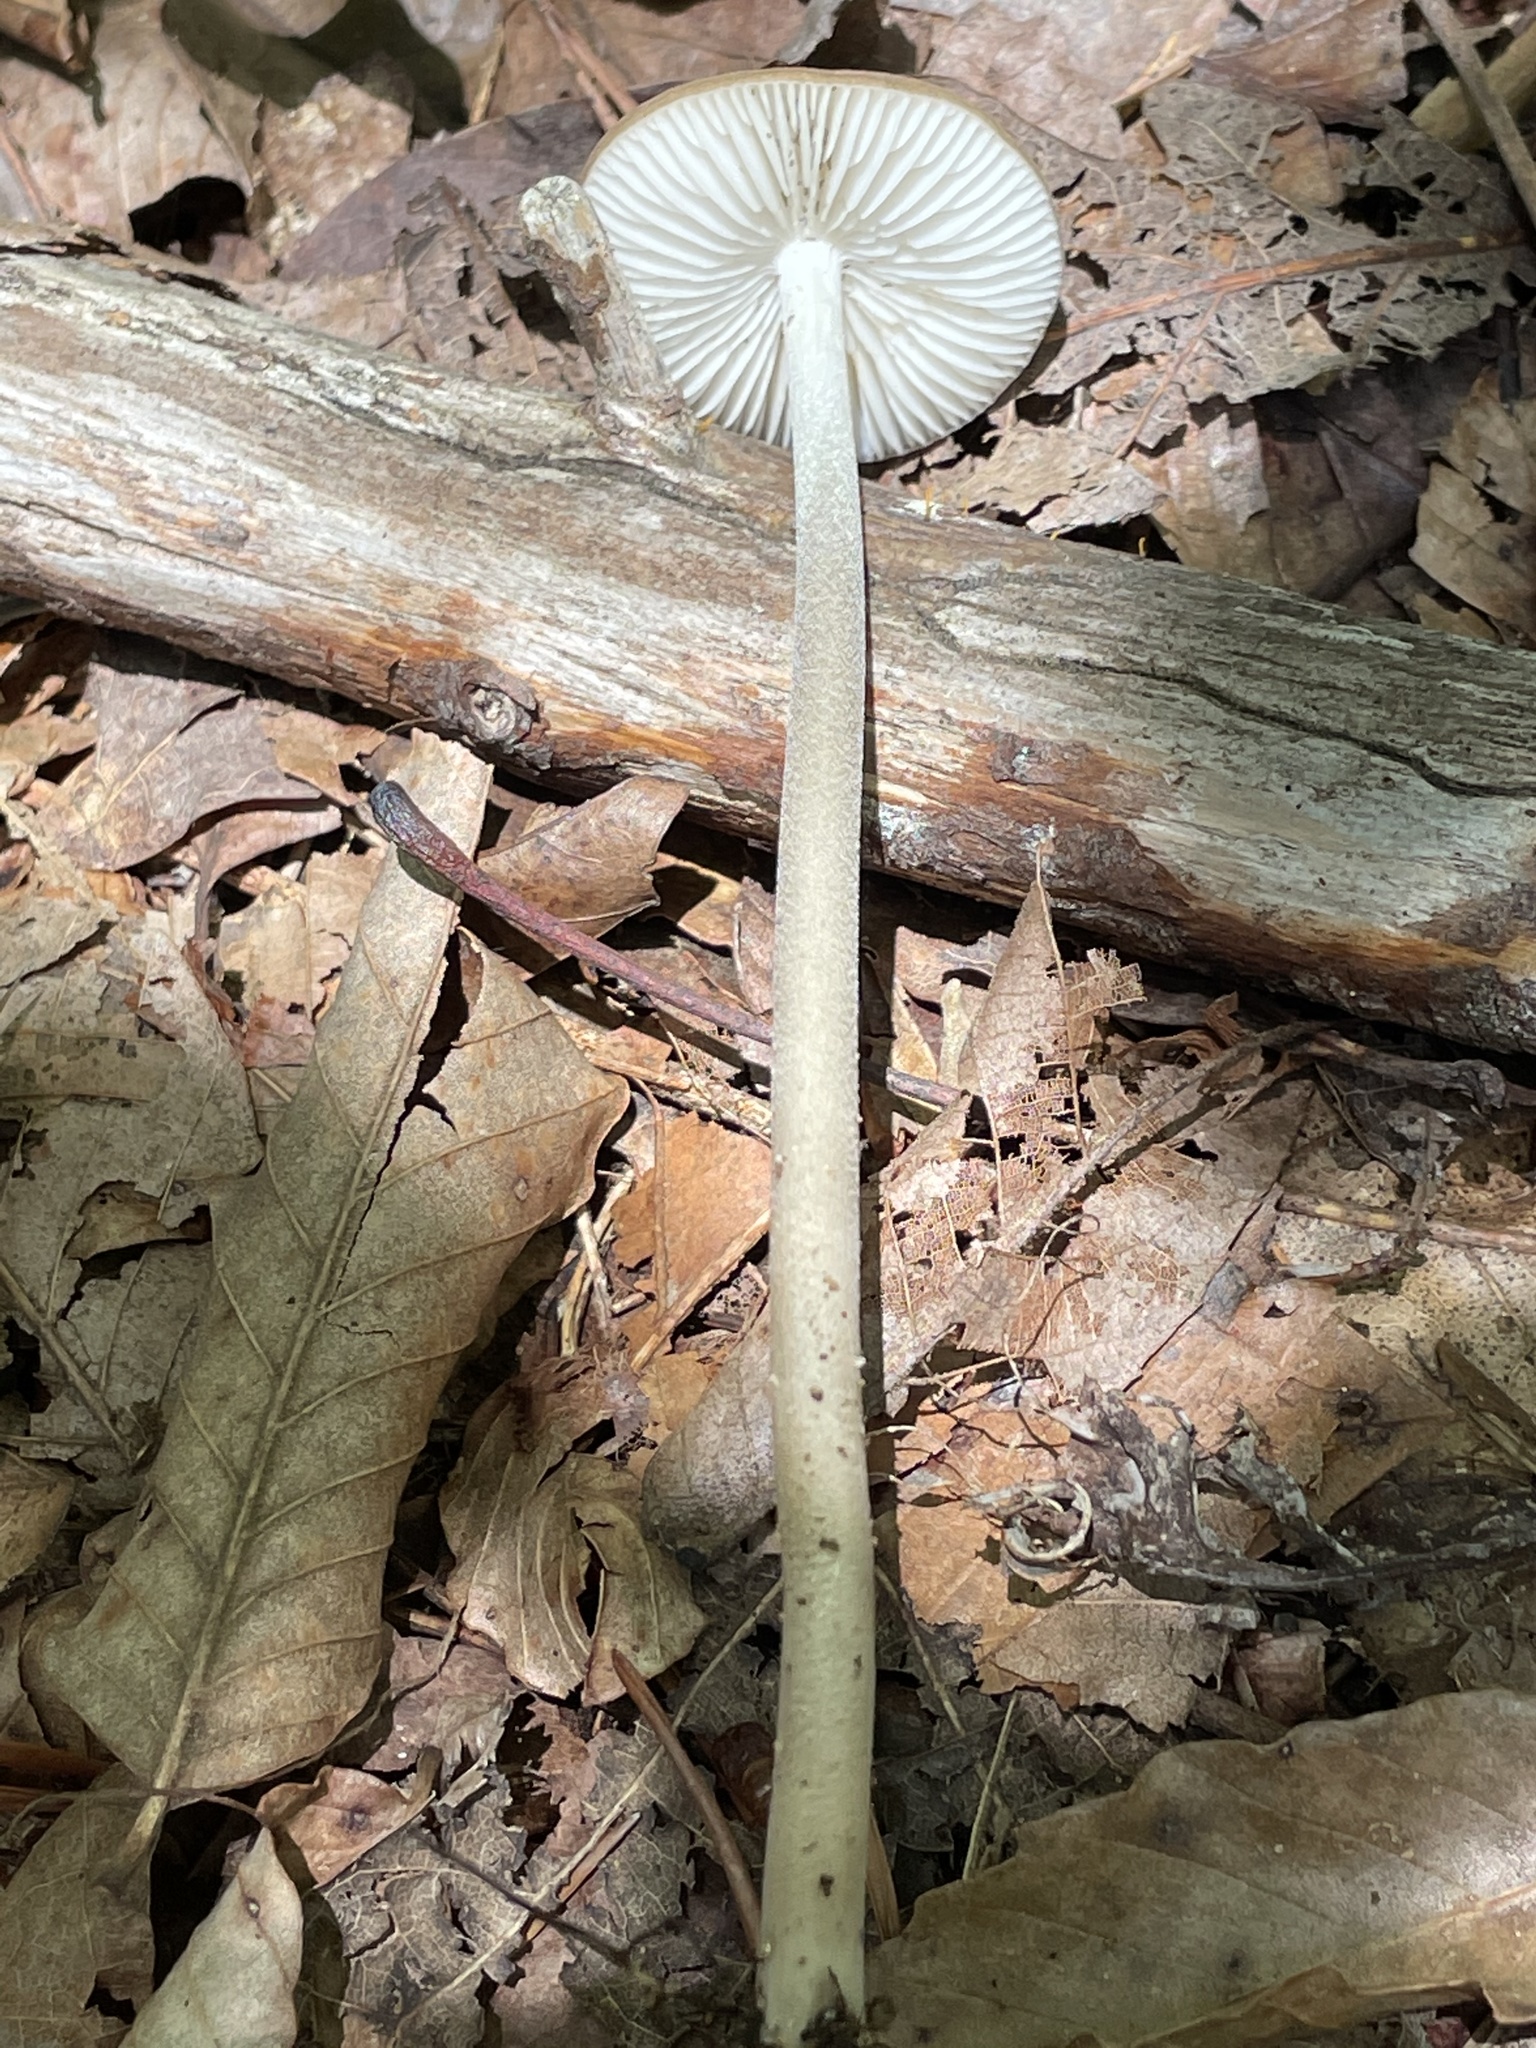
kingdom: Fungi
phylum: Basidiomycota
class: Agaricomycetes
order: Agaricales
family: Physalacriaceae
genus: Hymenopellis
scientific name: Hymenopellis furfuracea
